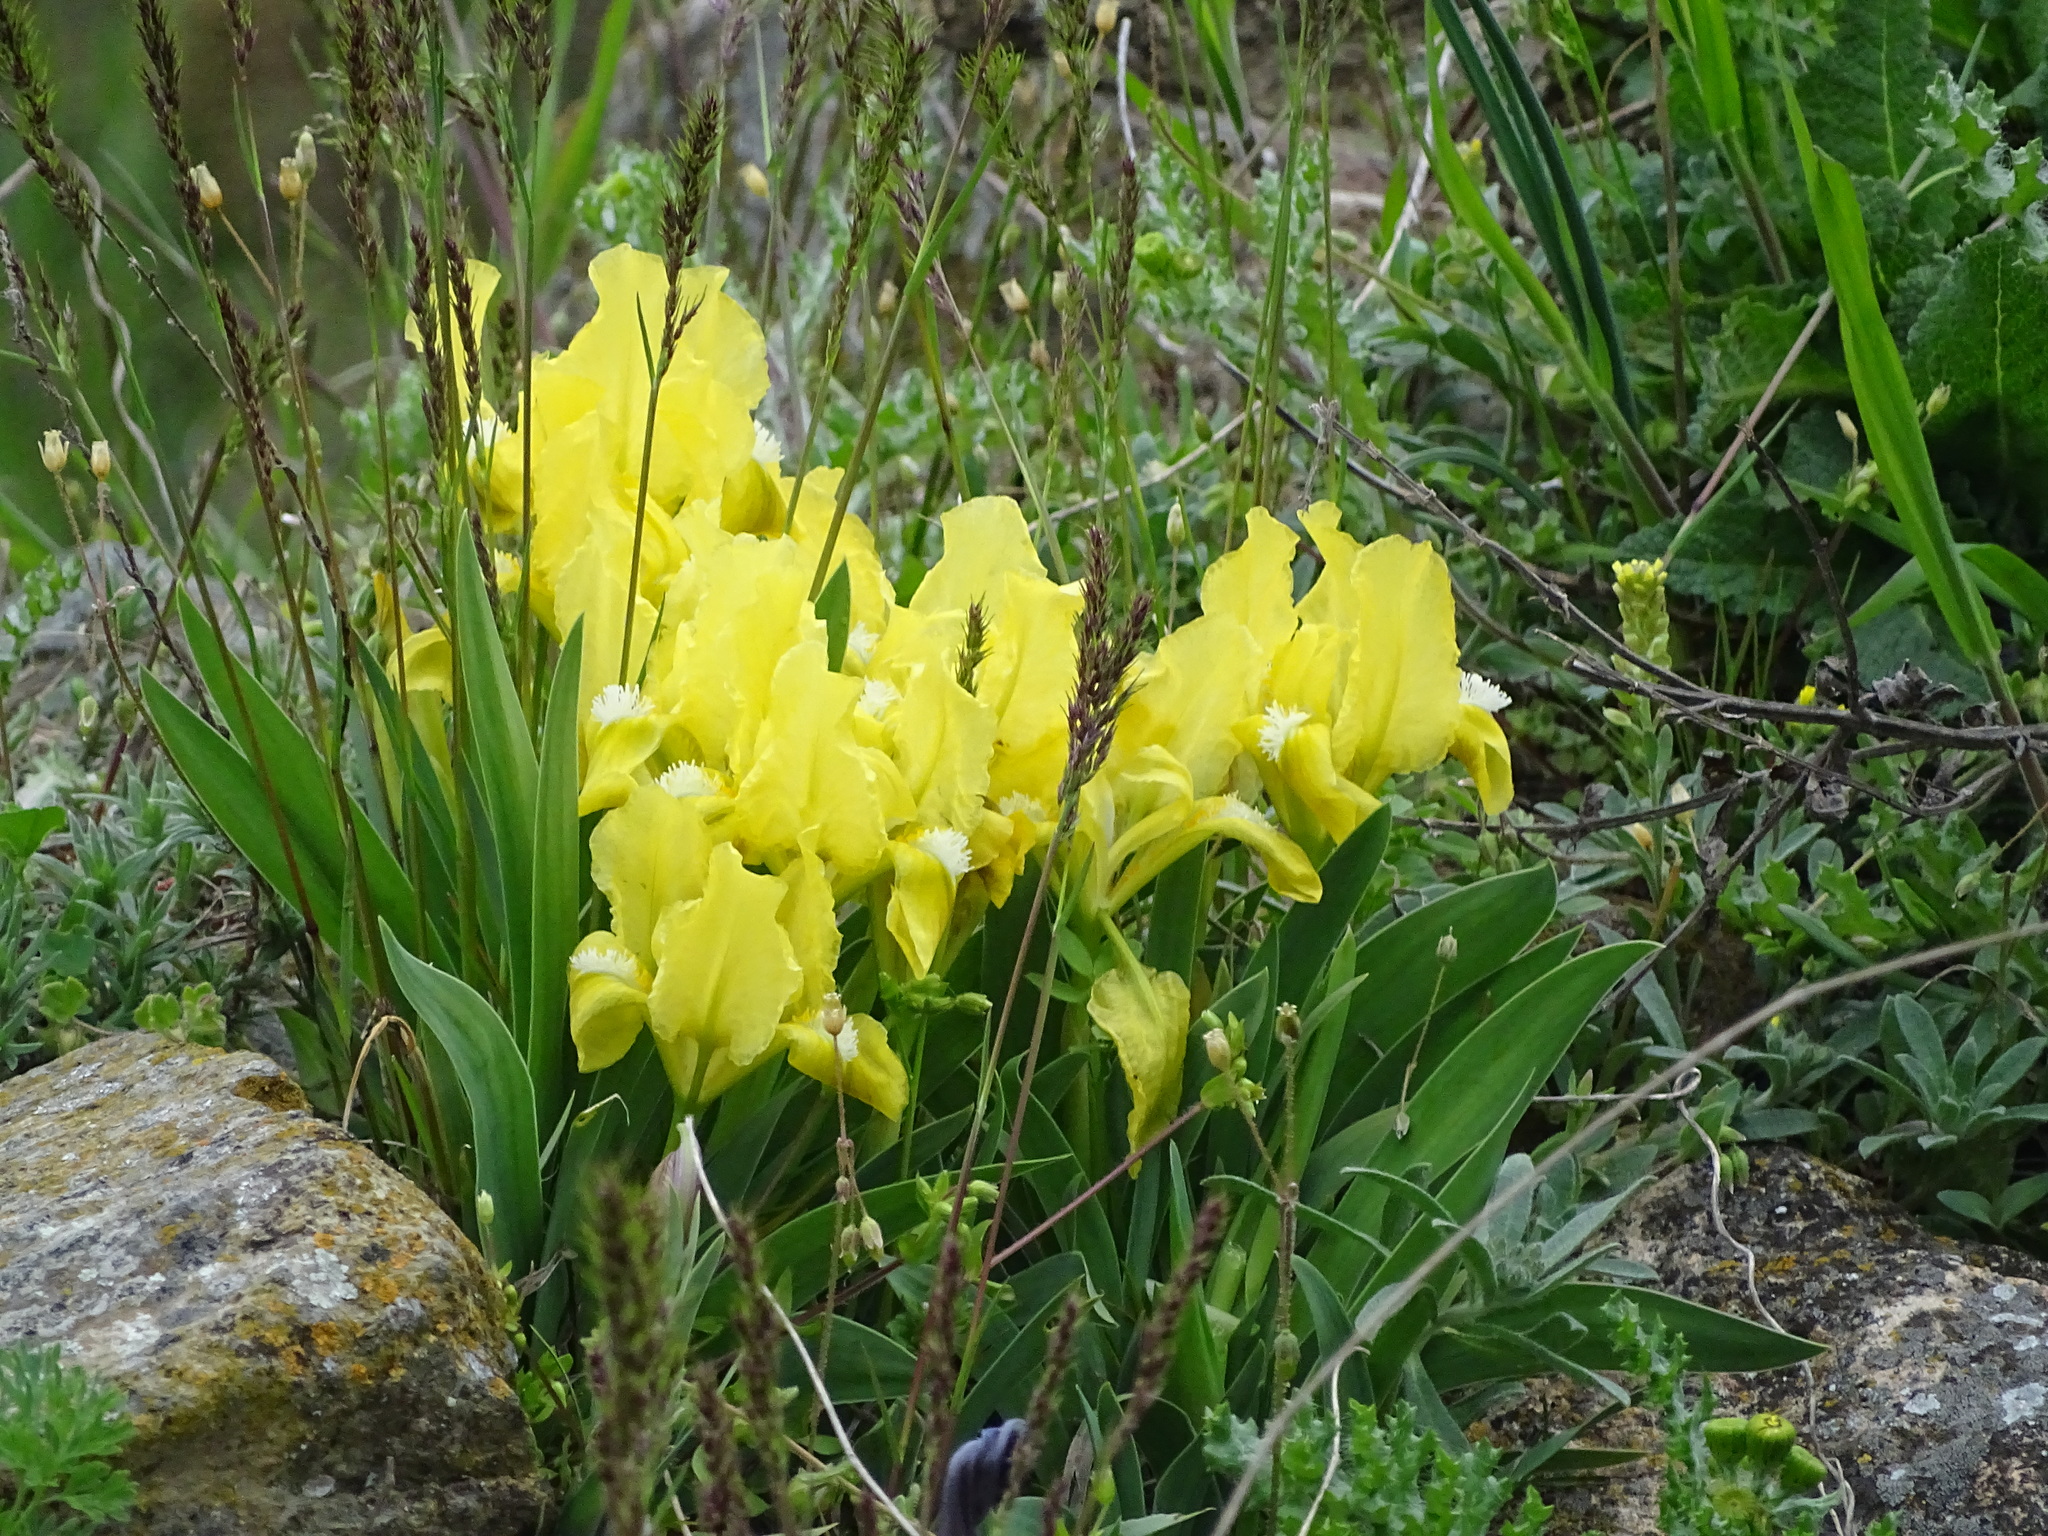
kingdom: Plantae
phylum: Tracheophyta
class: Liliopsida
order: Asparagales
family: Iridaceae
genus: Iris
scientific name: Iris pumila
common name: Dwarf iris
